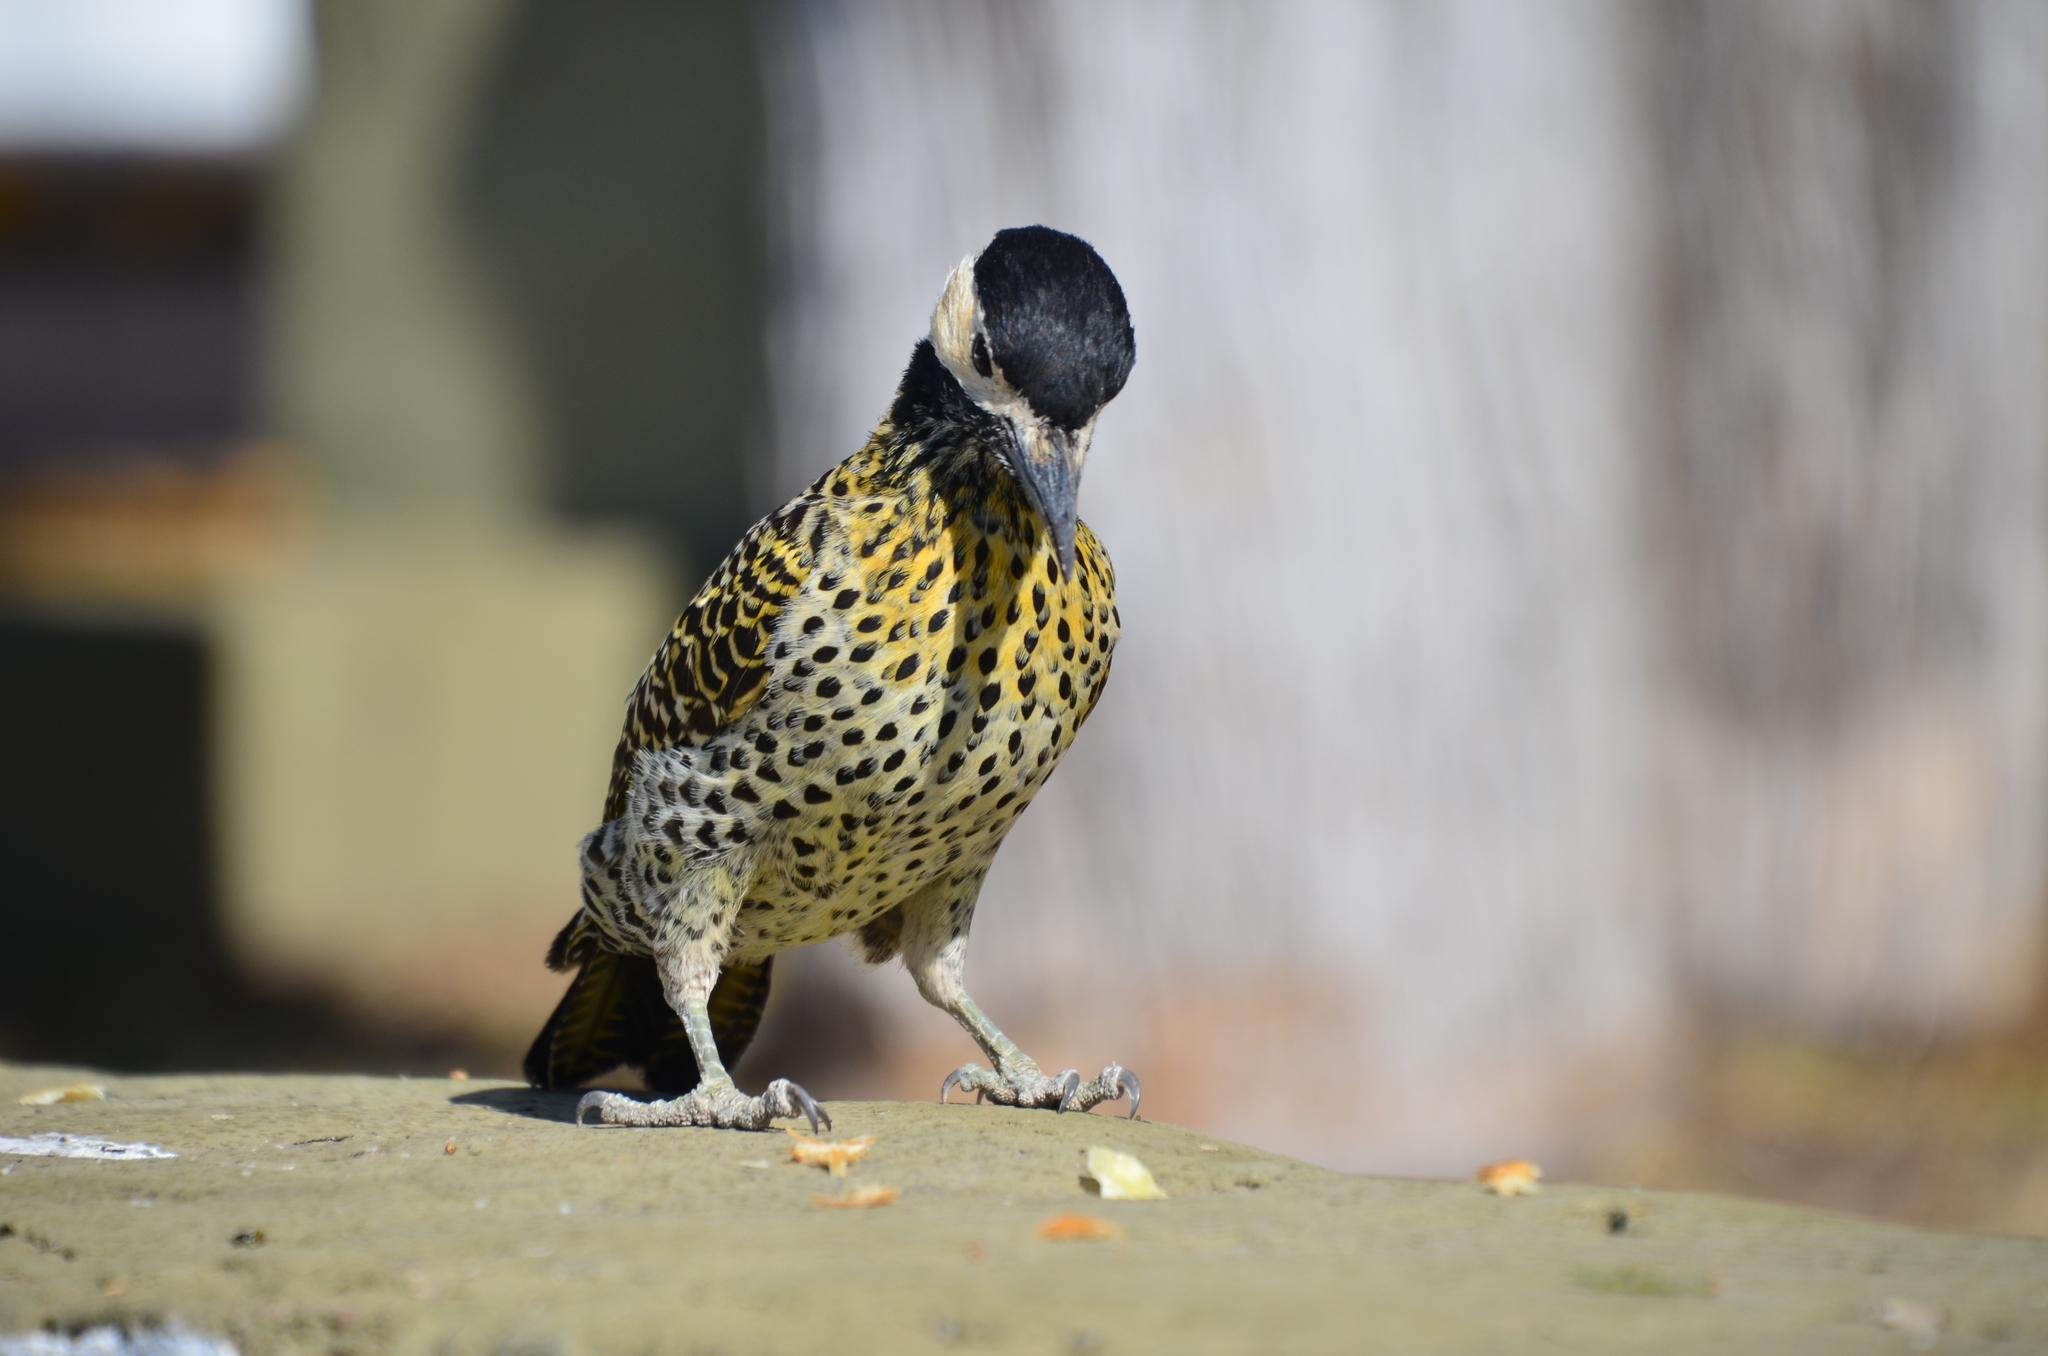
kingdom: Animalia
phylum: Chordata
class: Aves
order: Piciformes
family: Picidae
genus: Colaptes
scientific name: Colaptes melanochloros
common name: Green-barred woodpecker
